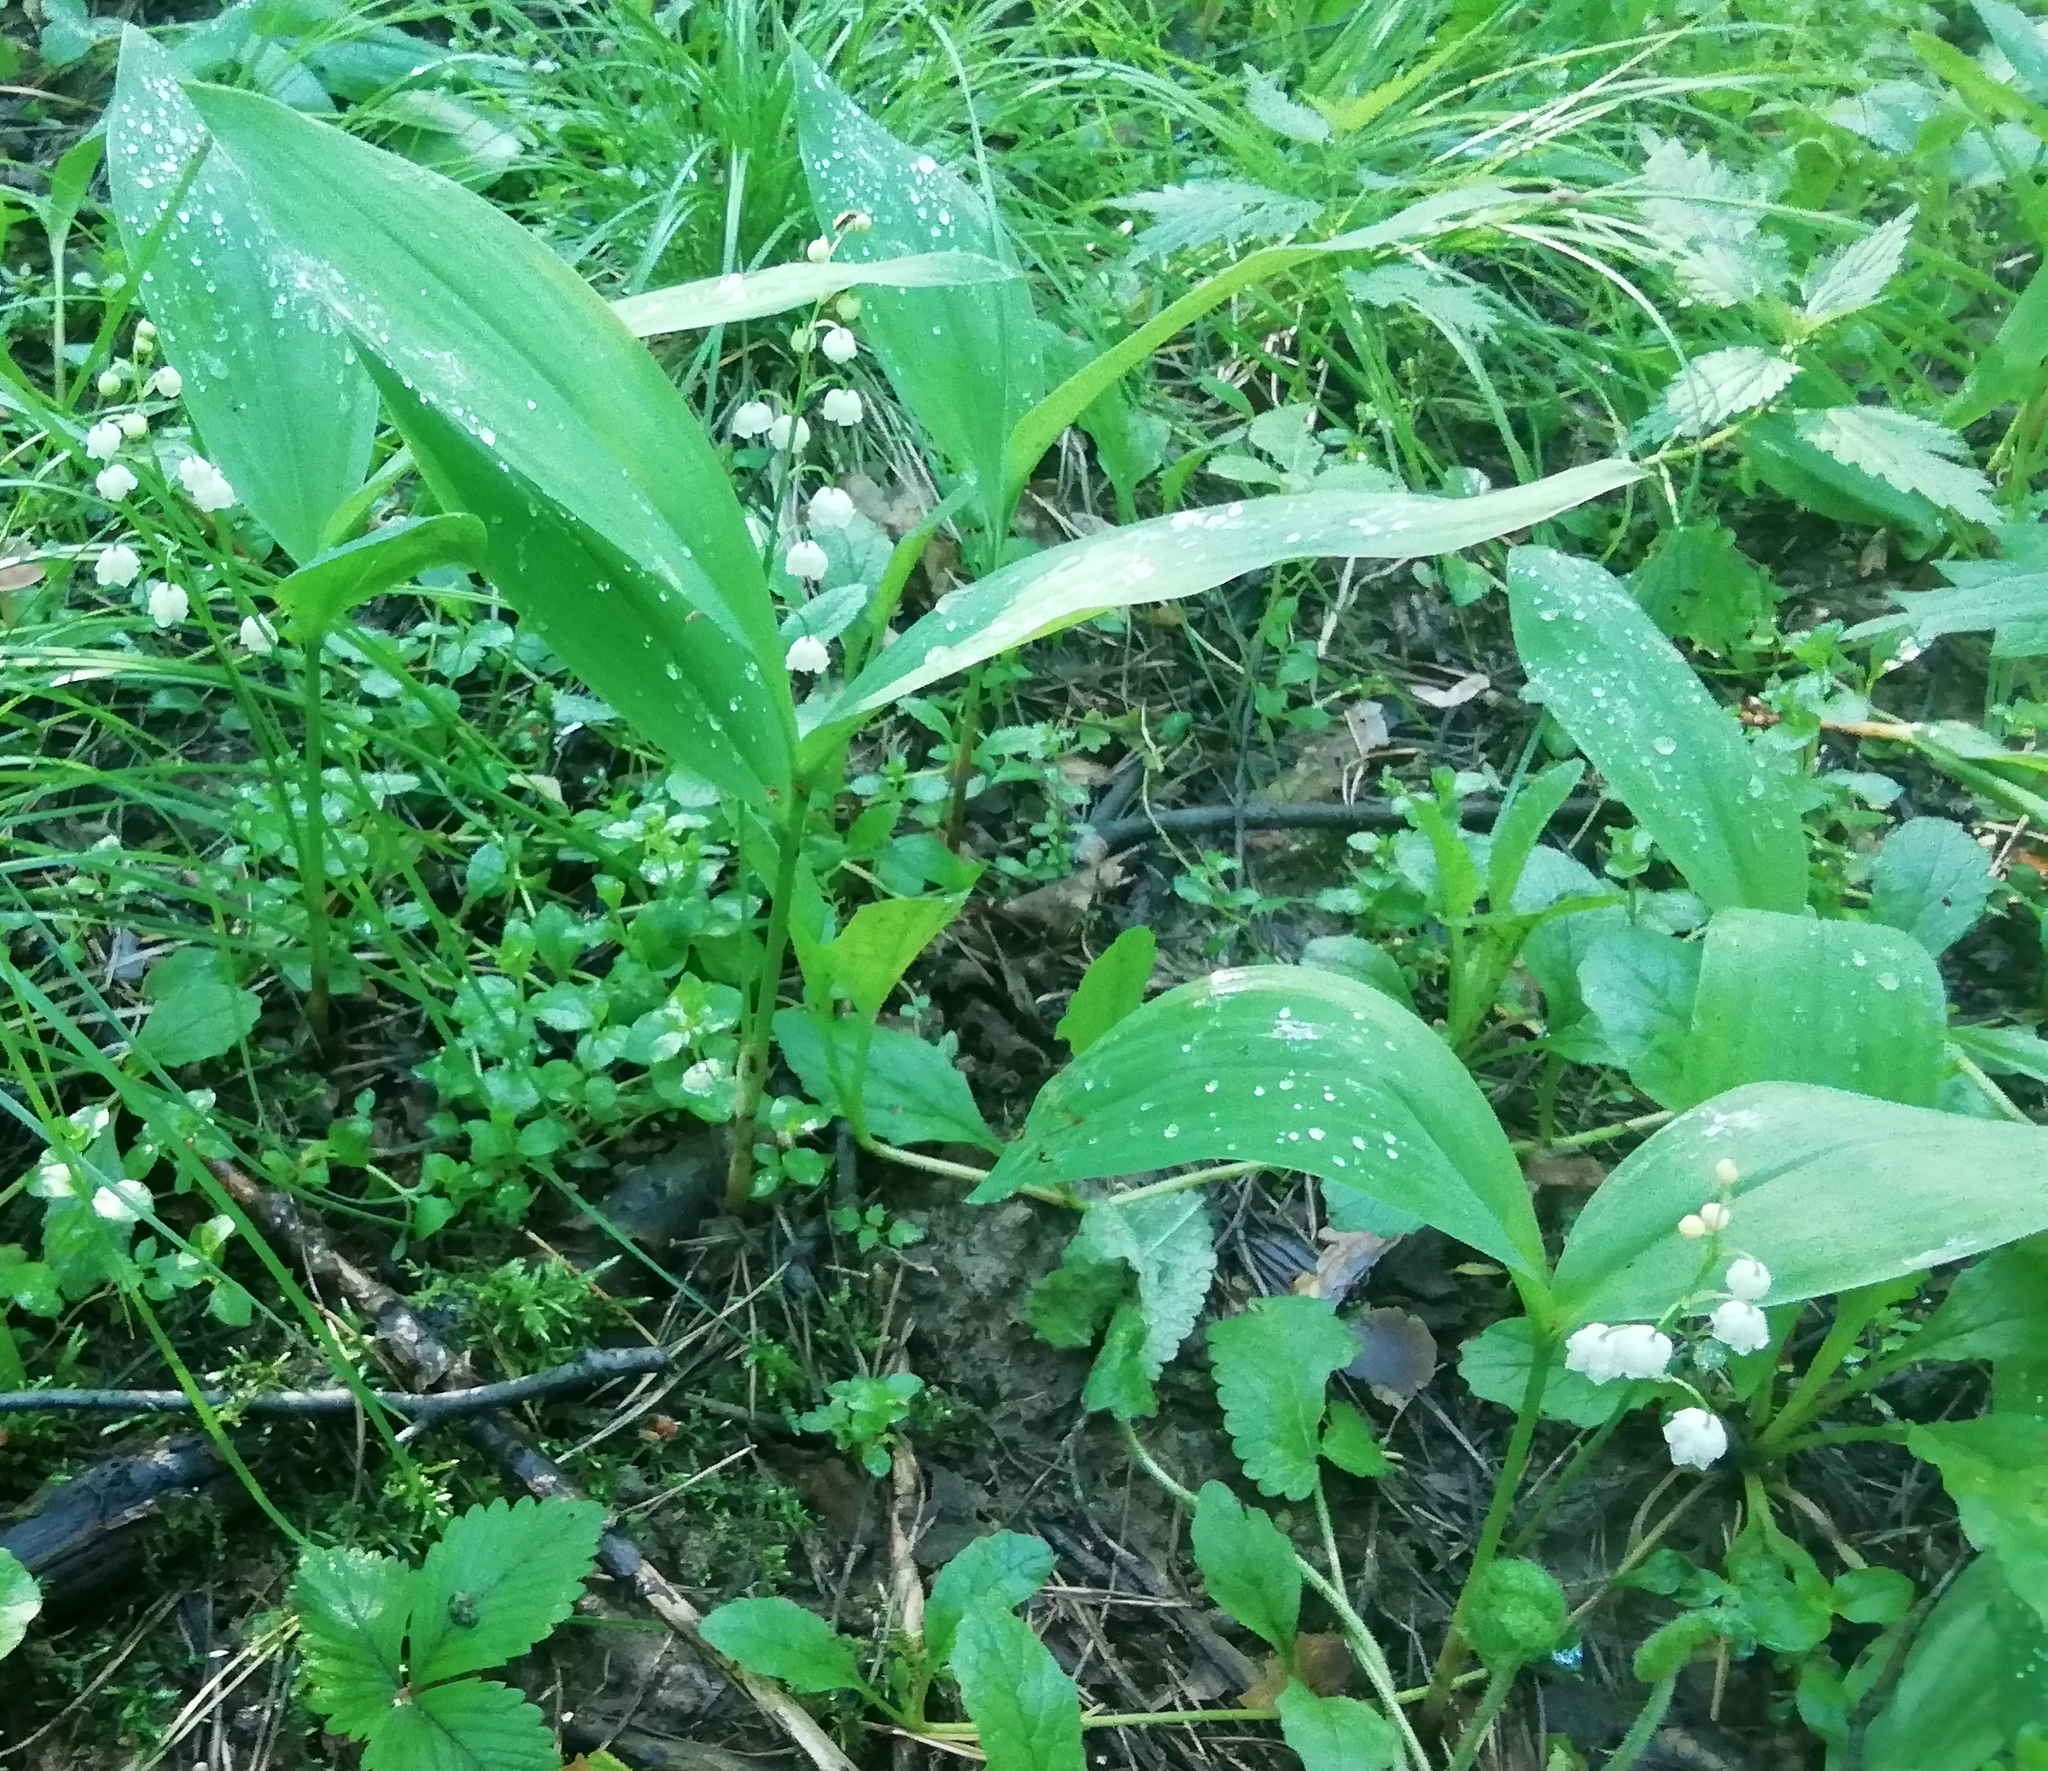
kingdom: Plantae
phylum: Tracheophyta
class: Liliopsida
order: Asparagales
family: Asparagaceae
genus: Convallaria
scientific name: Convallaria majalis
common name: Lily-of-the-valley
